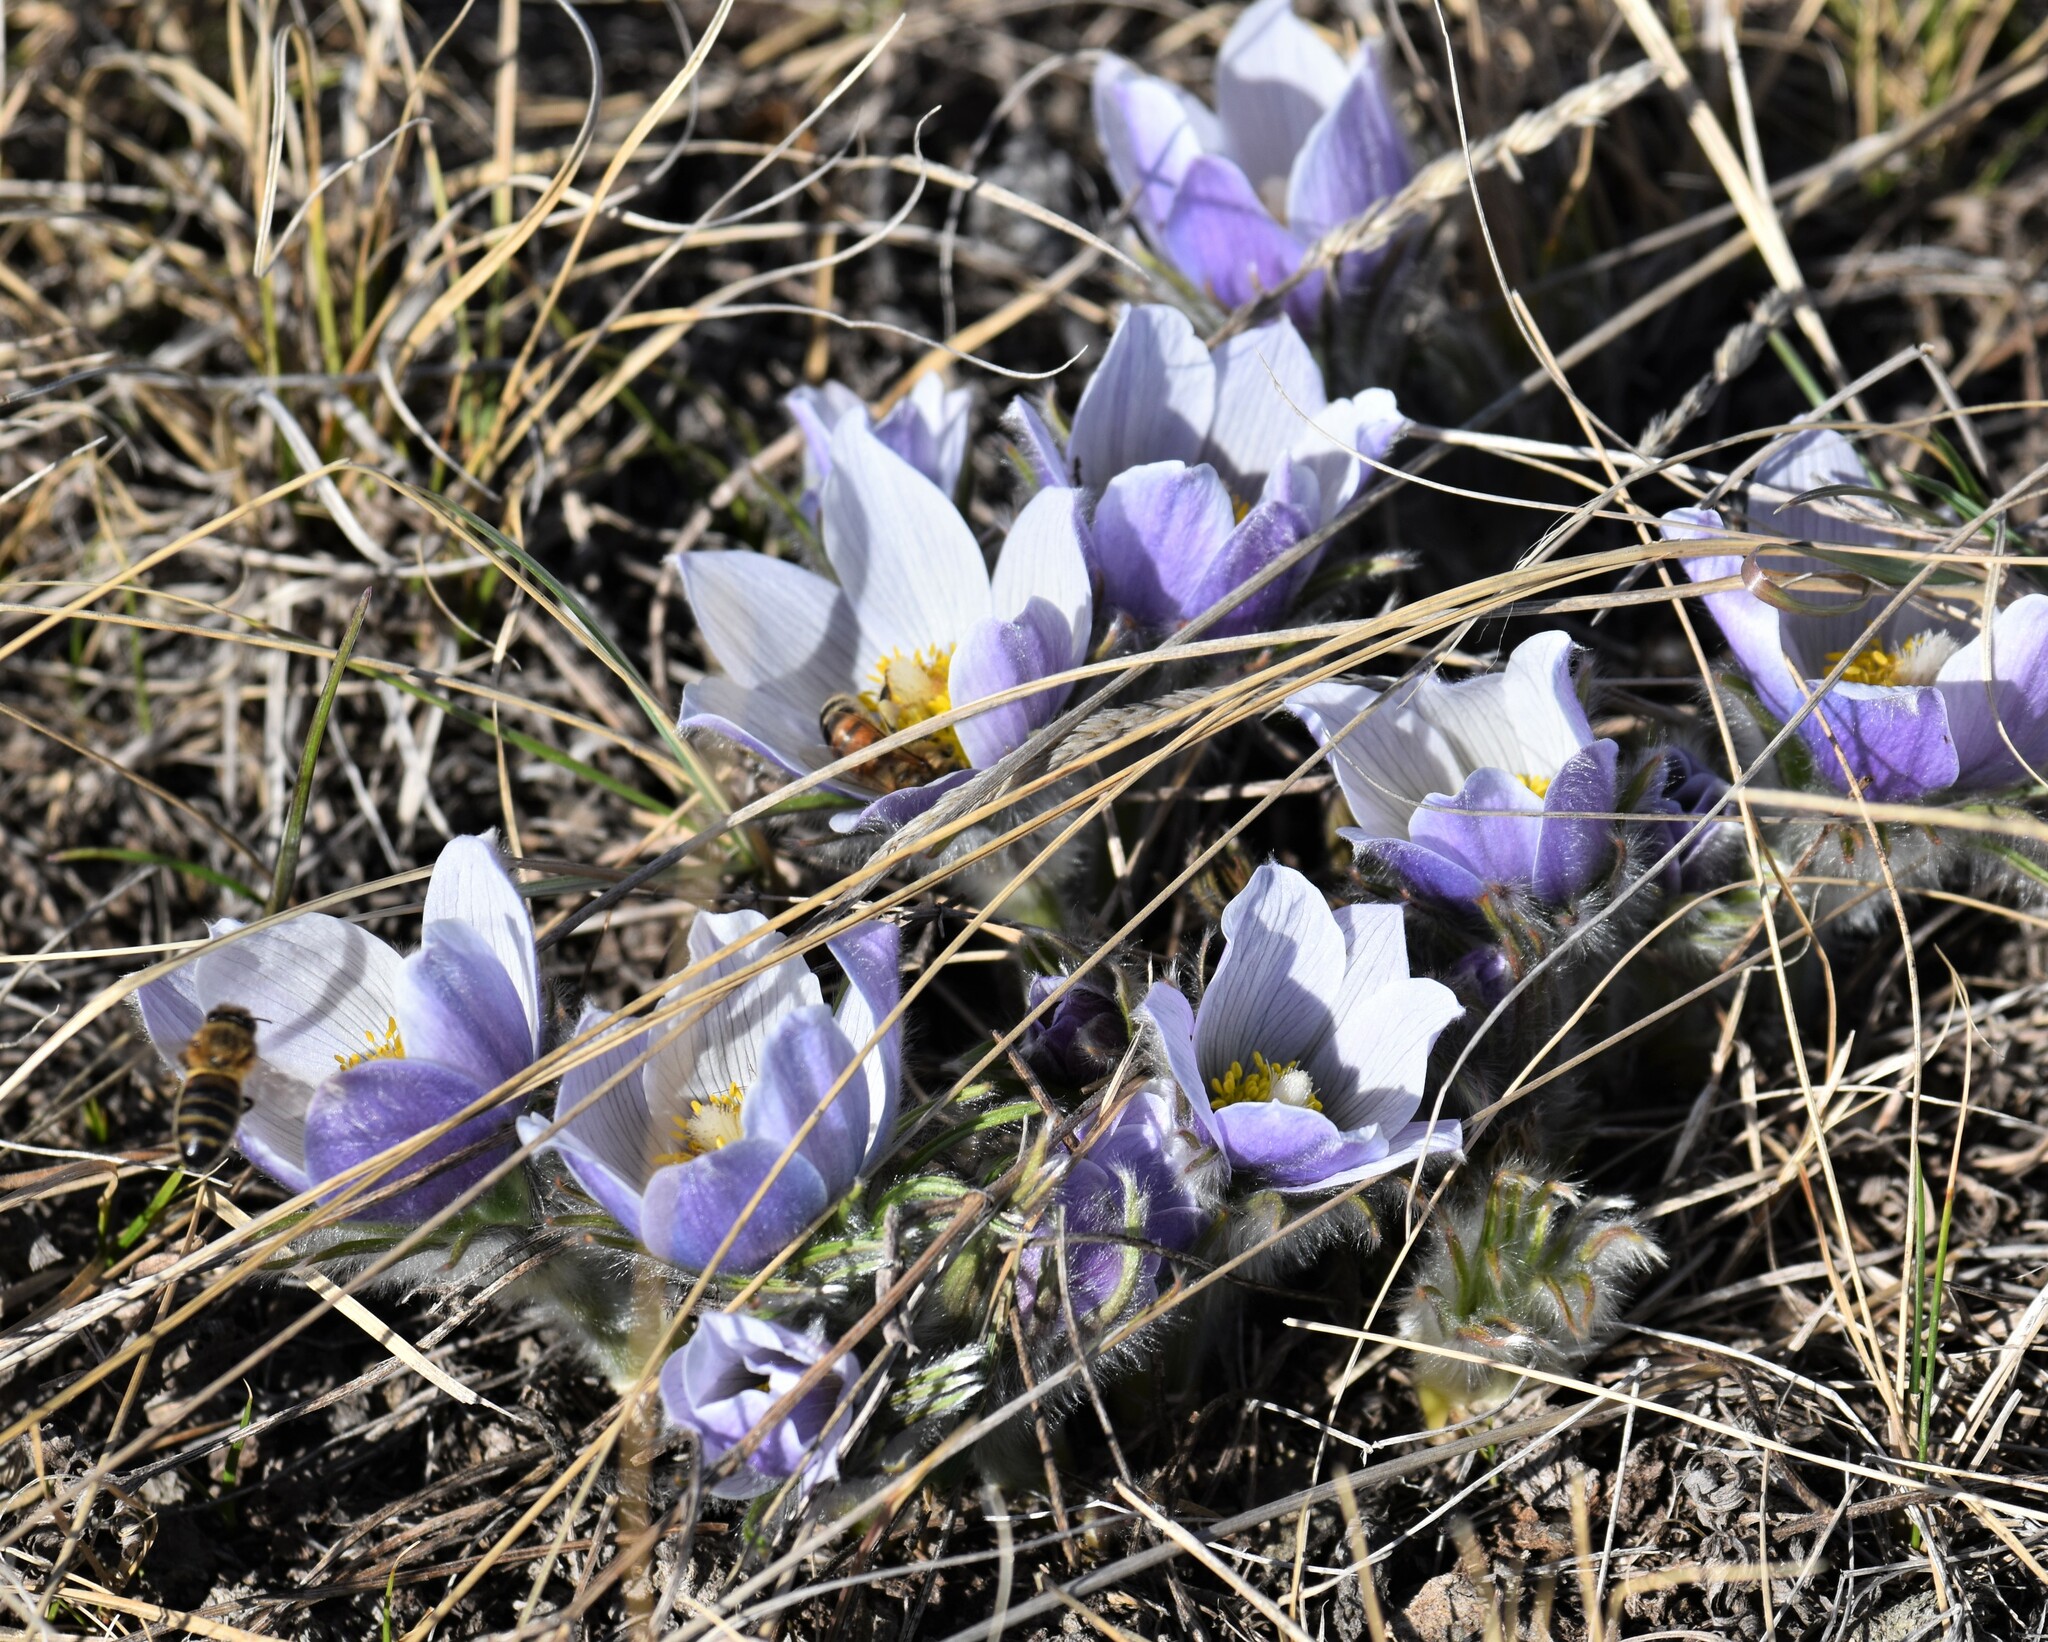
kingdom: Plantae
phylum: Tracheophyta
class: Magnoliopsida
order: Ranunculales
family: Ranunculaceae
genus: Pulsatilla
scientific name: Pulsatilla nuttalliana
